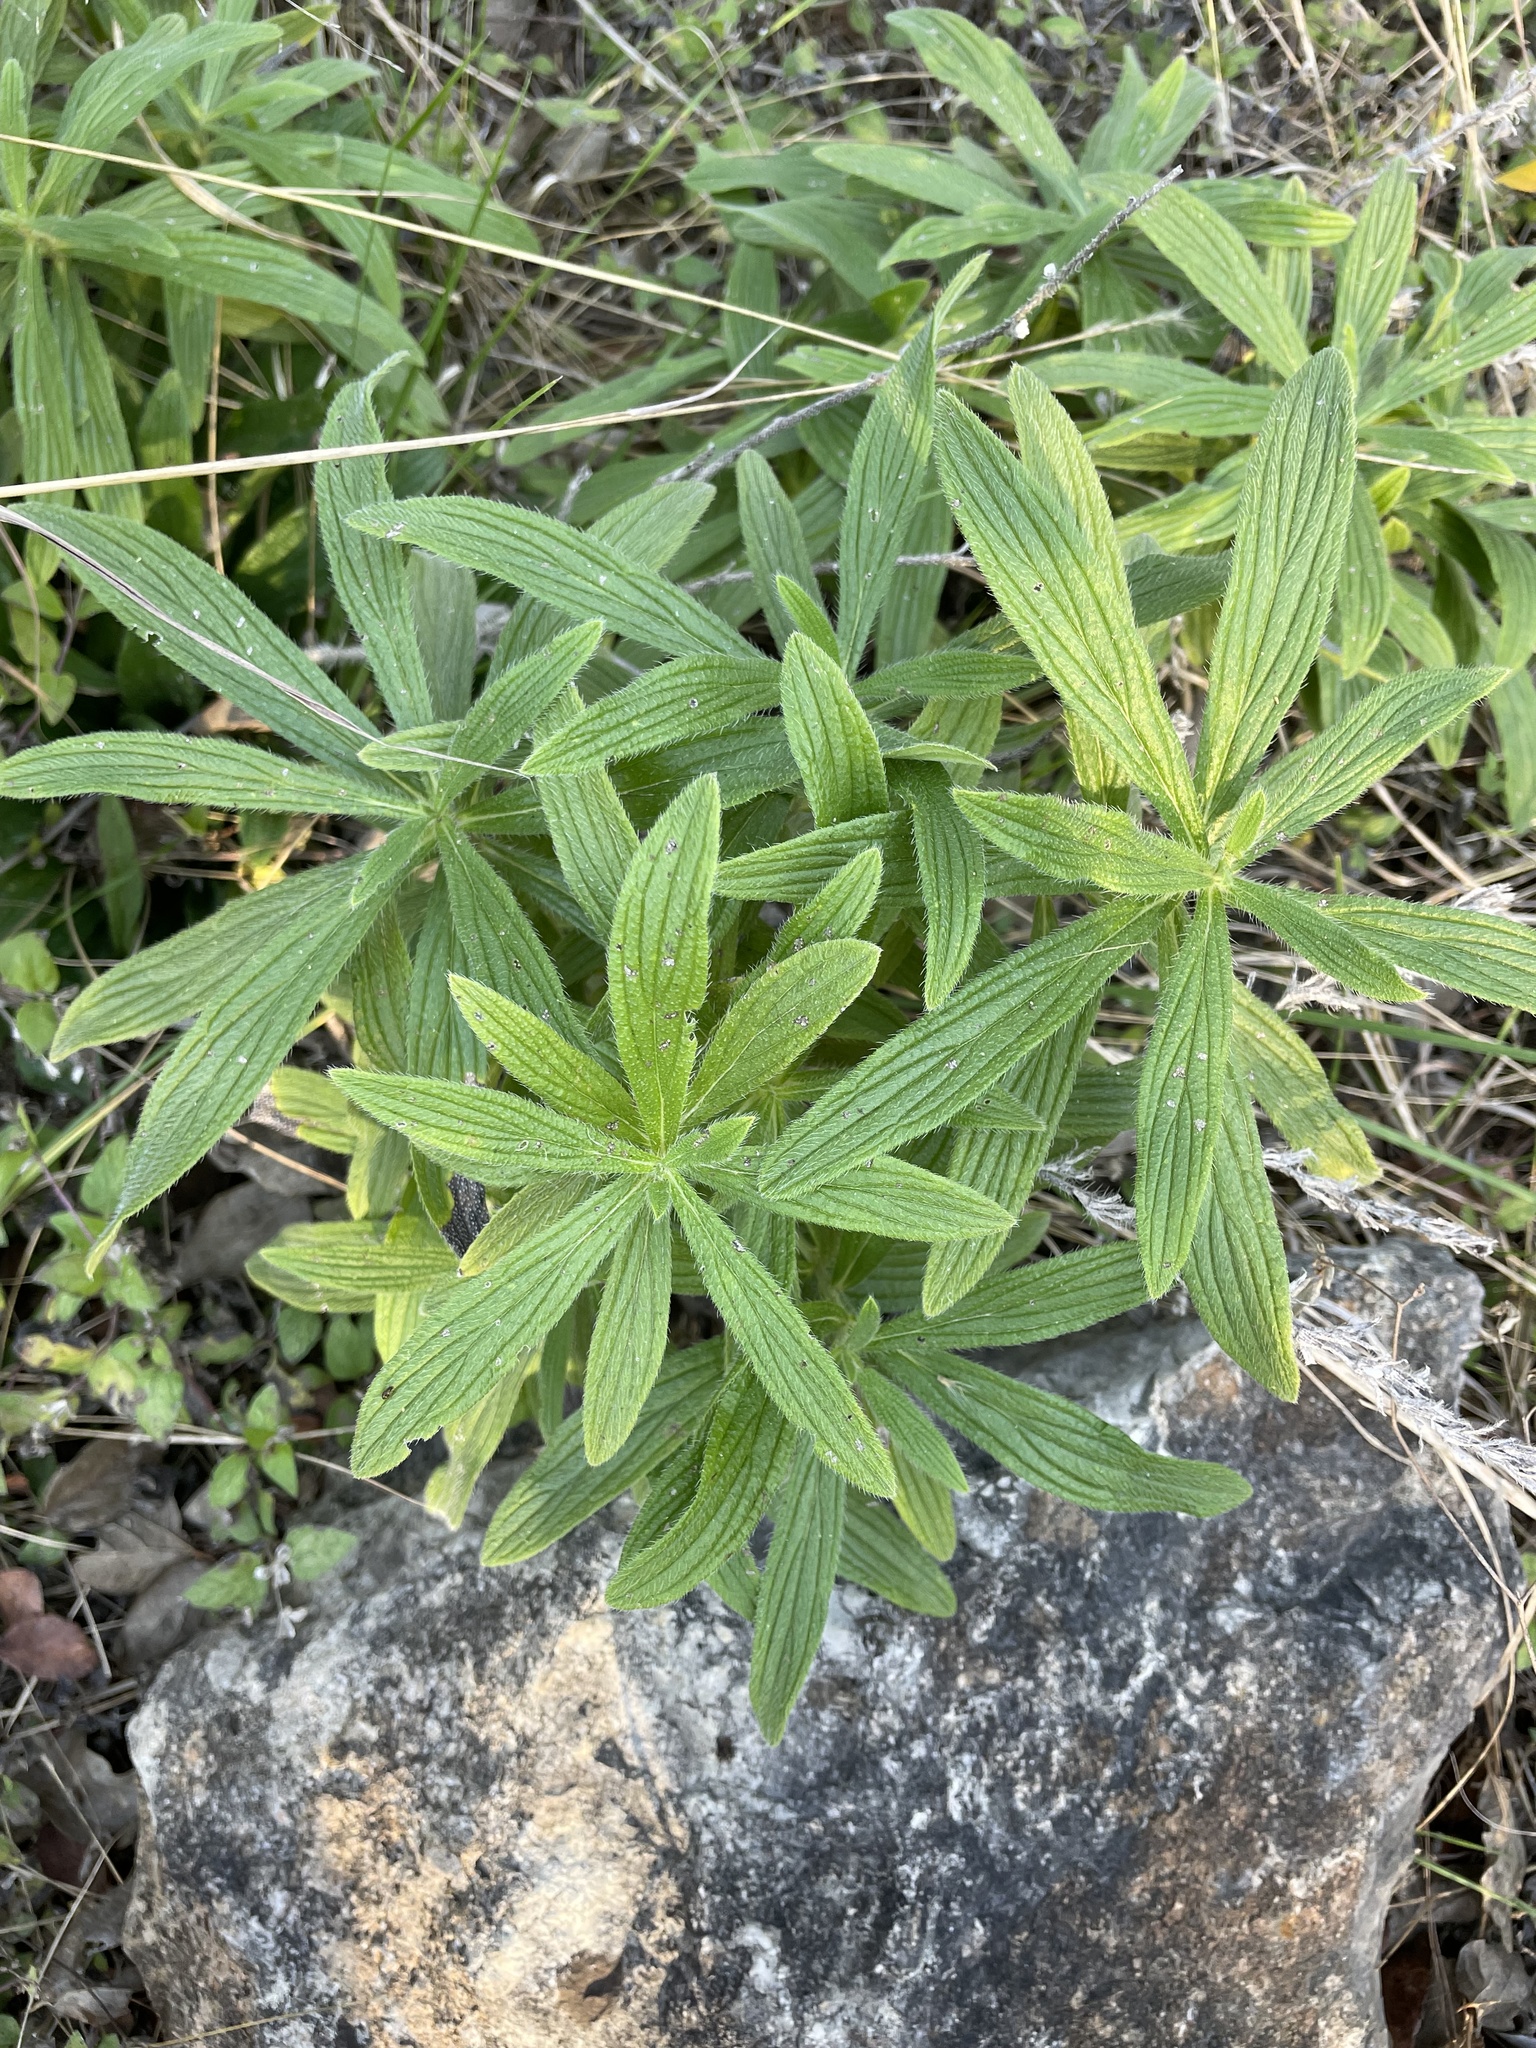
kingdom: Plantae
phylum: Tracheophyta
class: Magnoliopsida
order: Boraginales
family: Boraginaceae
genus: Lithospermum
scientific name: Lithospermum caroliniense
